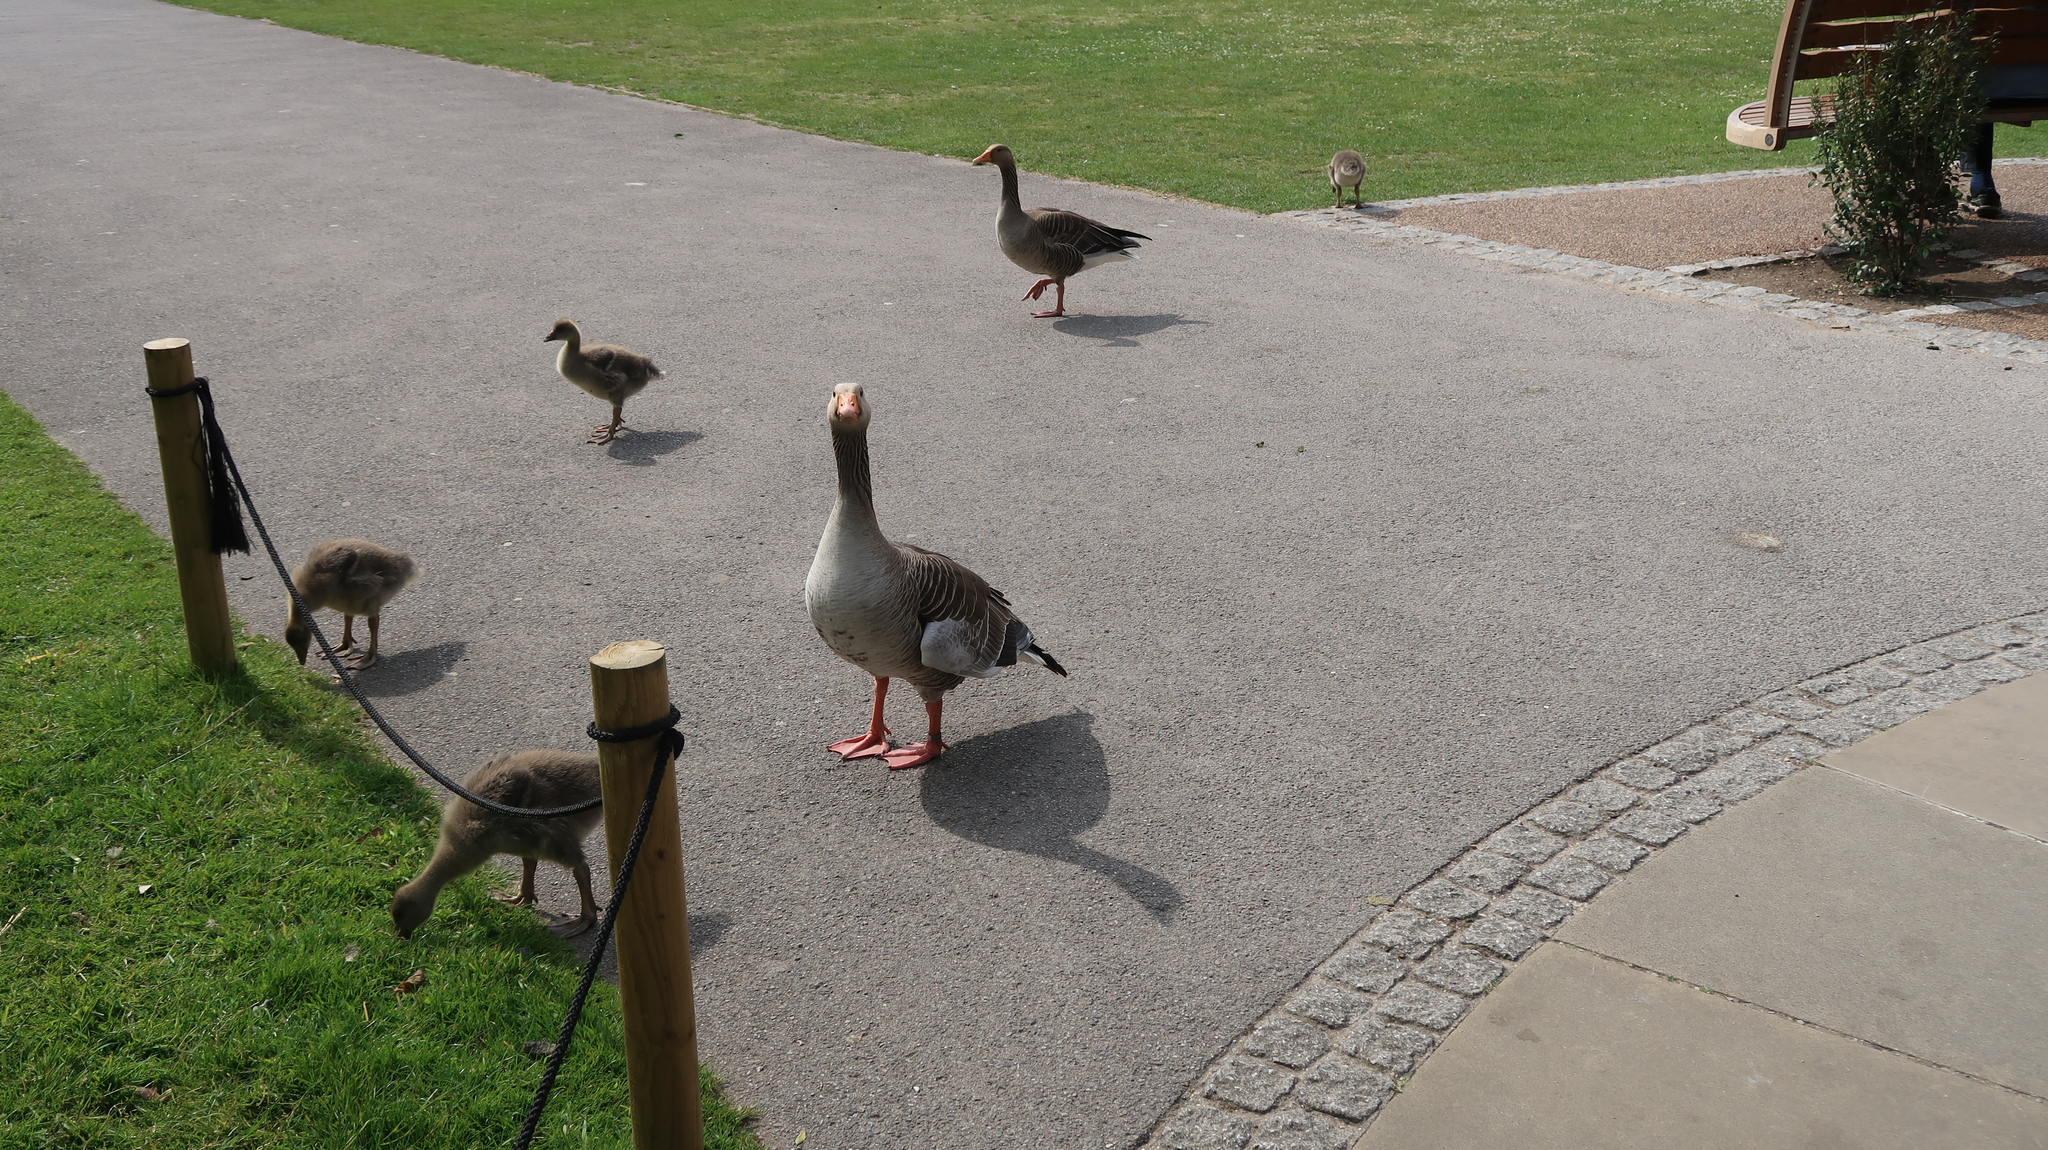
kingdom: Animalia
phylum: Chordata
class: Aves
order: Anseriformes
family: Anatidae
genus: Anser
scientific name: Anser anser
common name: Greylag goose
